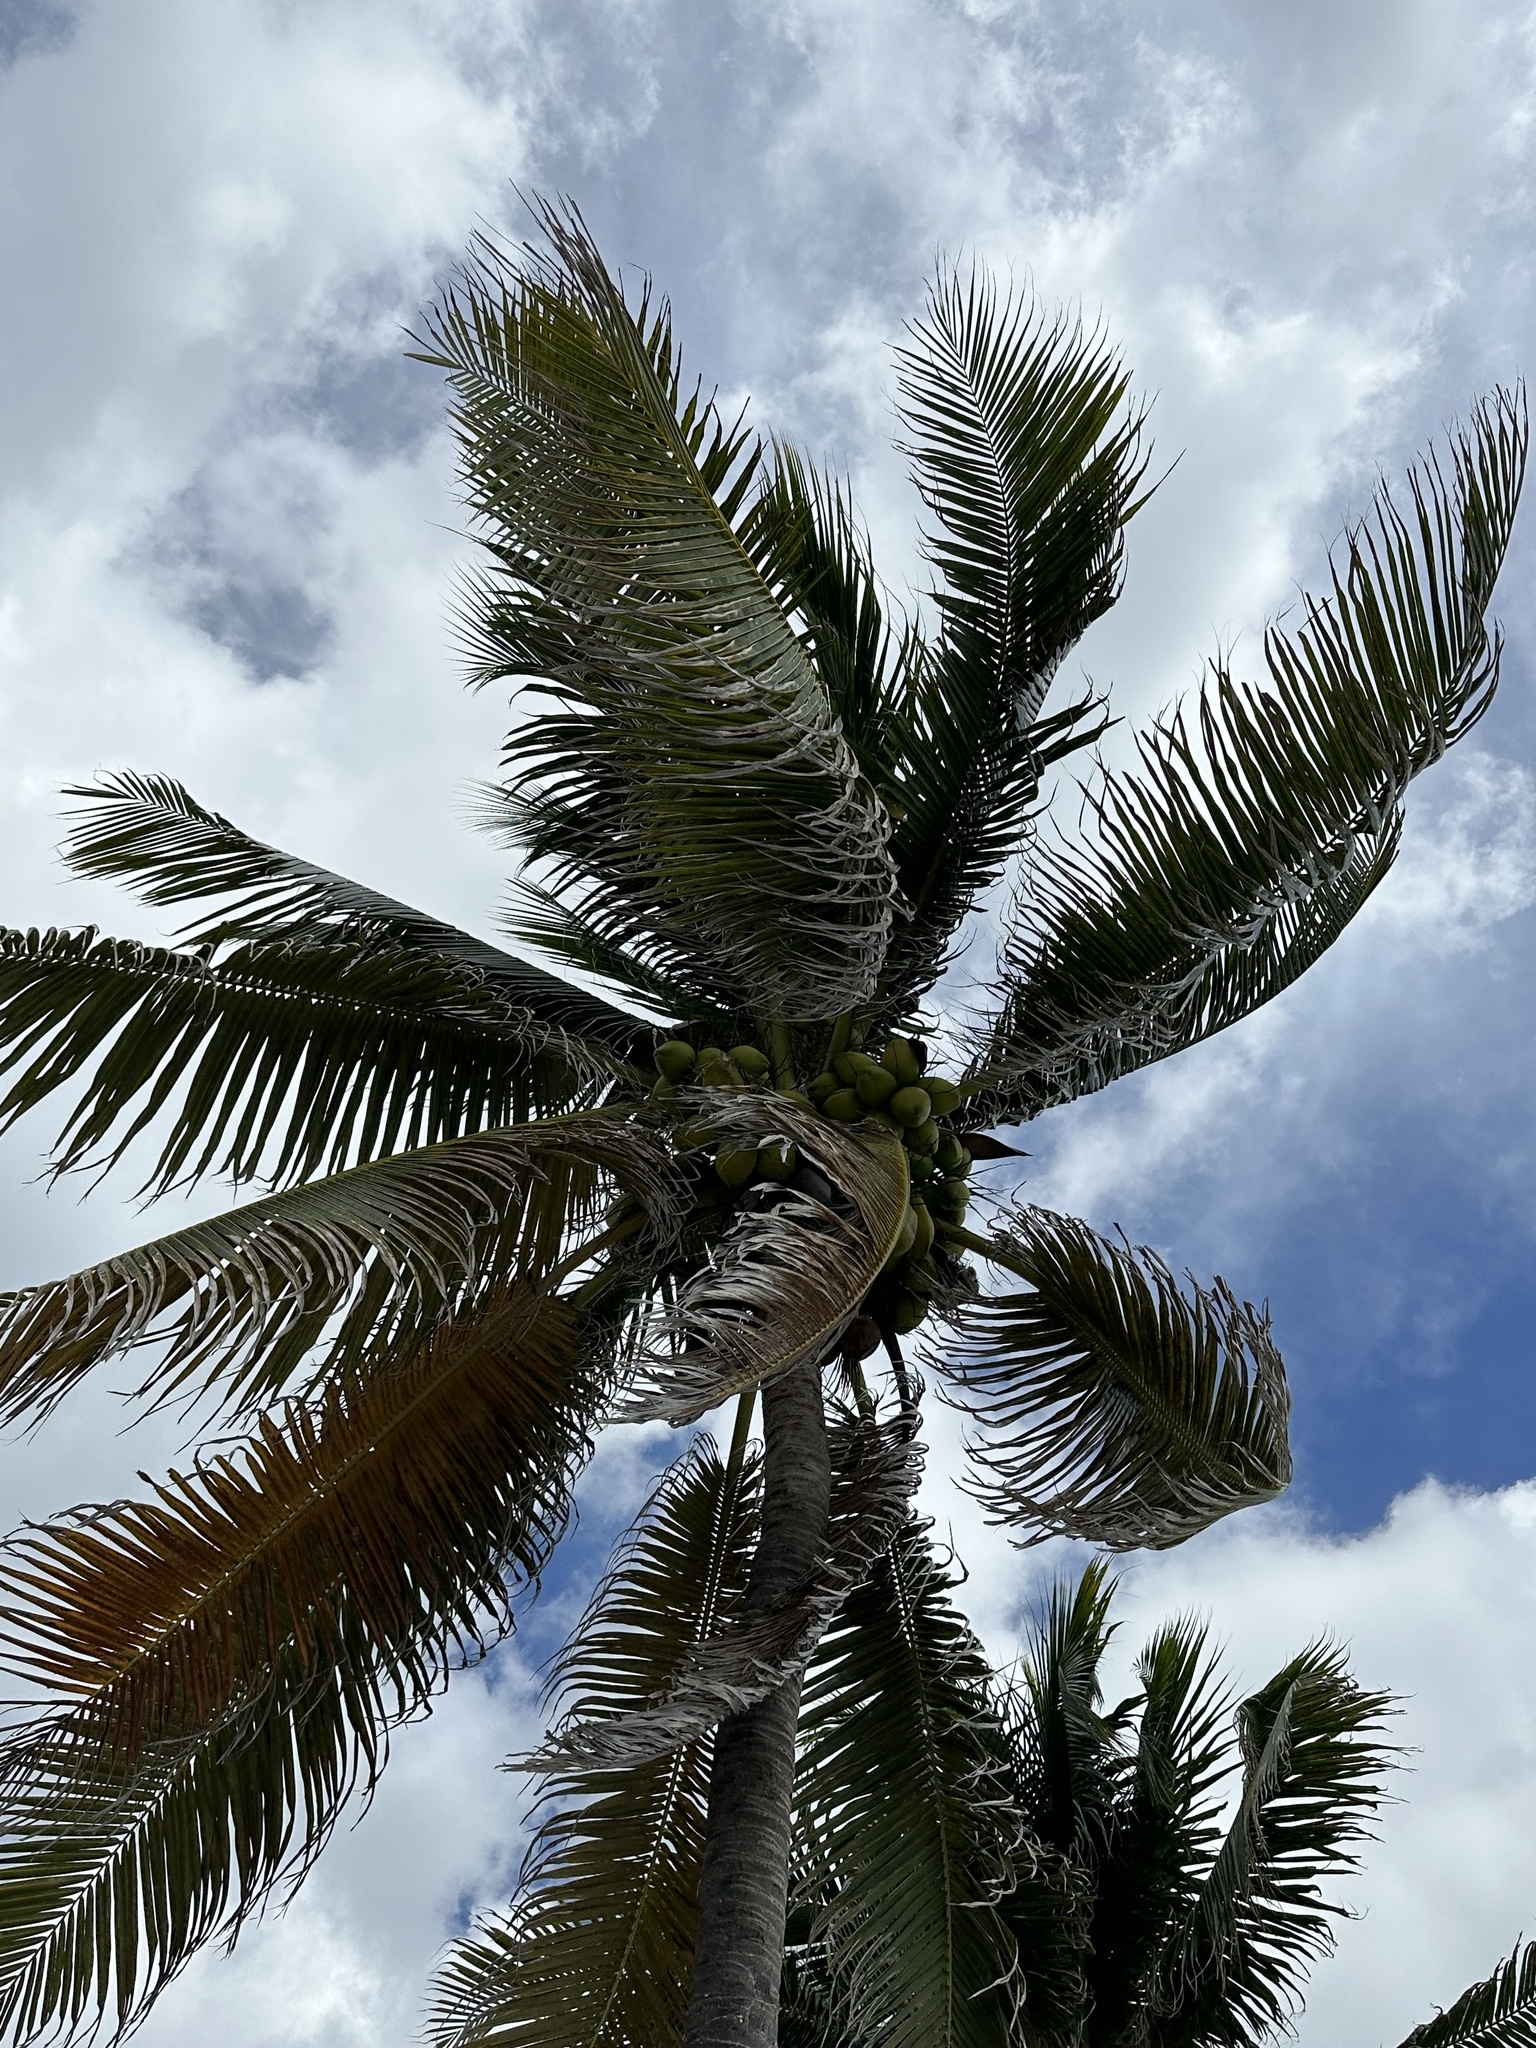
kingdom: Plantae
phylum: Tracheophyta
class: Liliopsida
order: Arecales
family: Arecaceae
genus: Cocos
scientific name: Cocos nucifera
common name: Coconut palm
